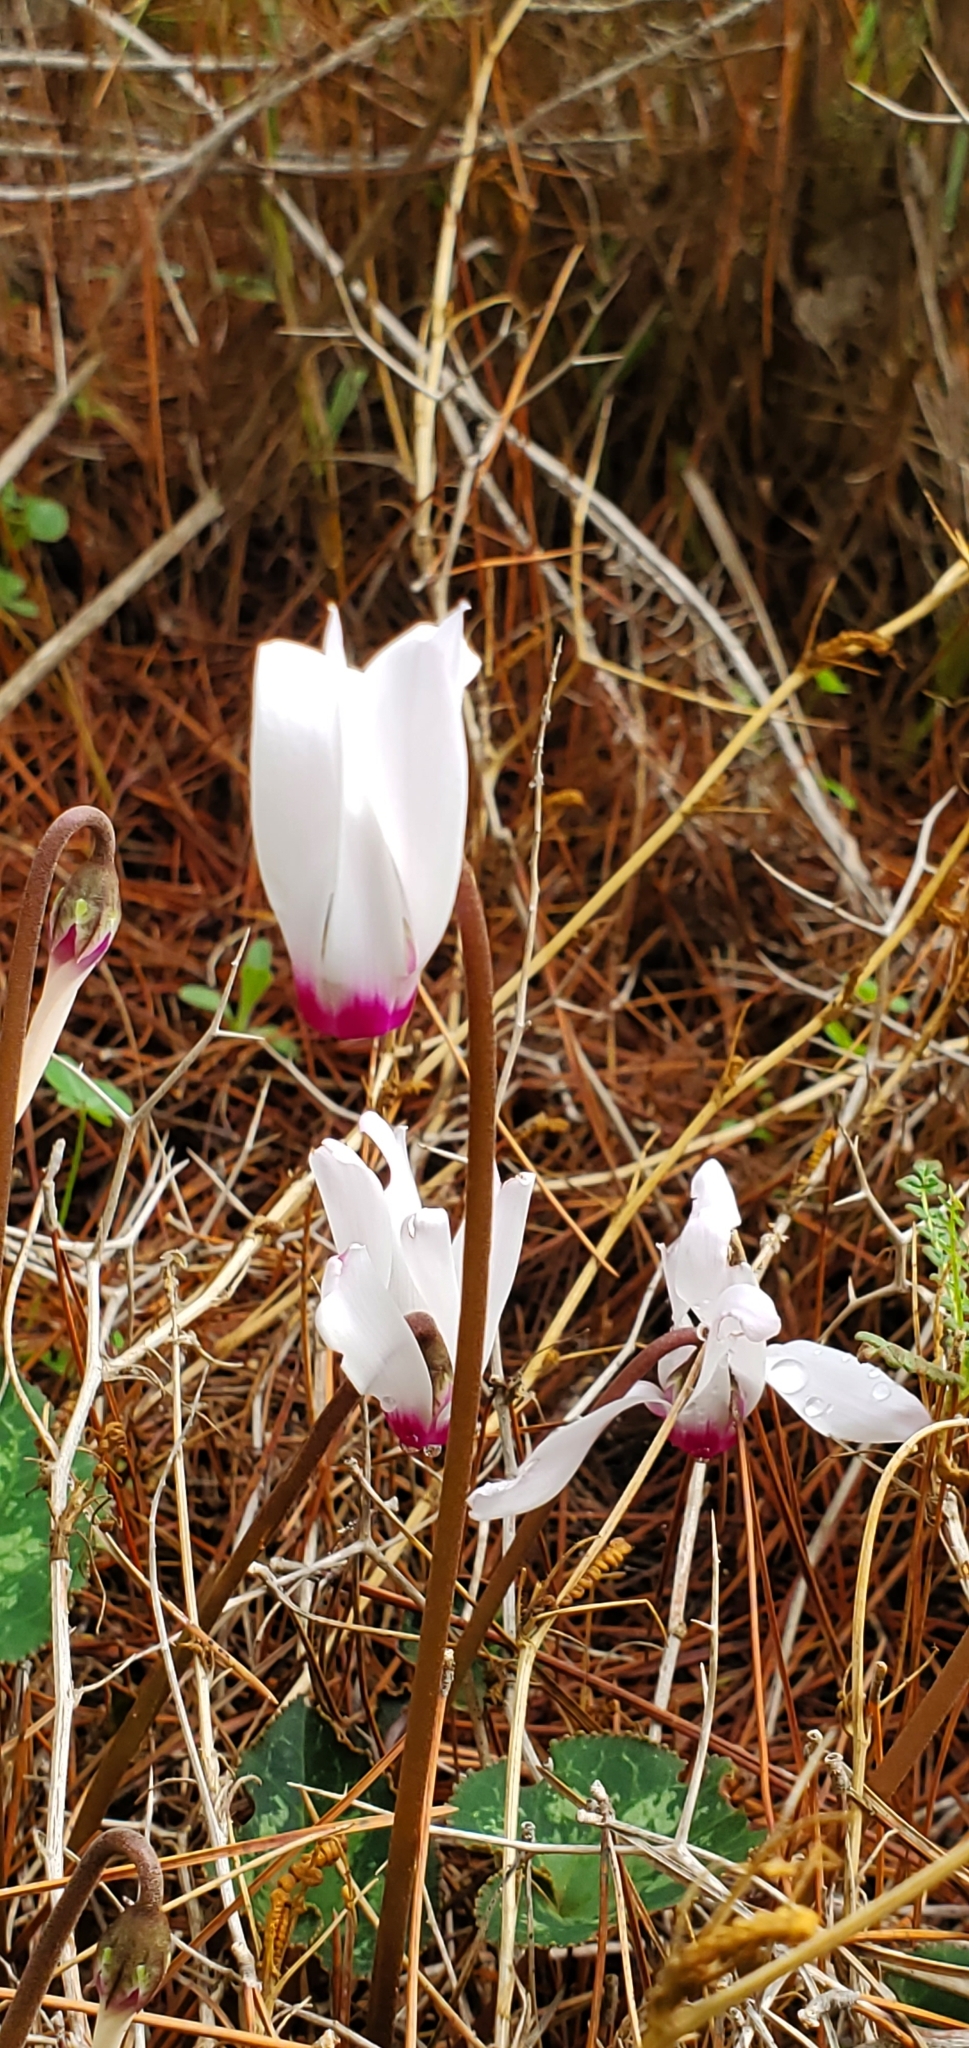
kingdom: Plantae
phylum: Tracheophyta
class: Magnoliopsida
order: Ericales
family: Primulaceae
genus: Cyclamen
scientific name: Cyclamen persicum
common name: Florist's cyclamen
